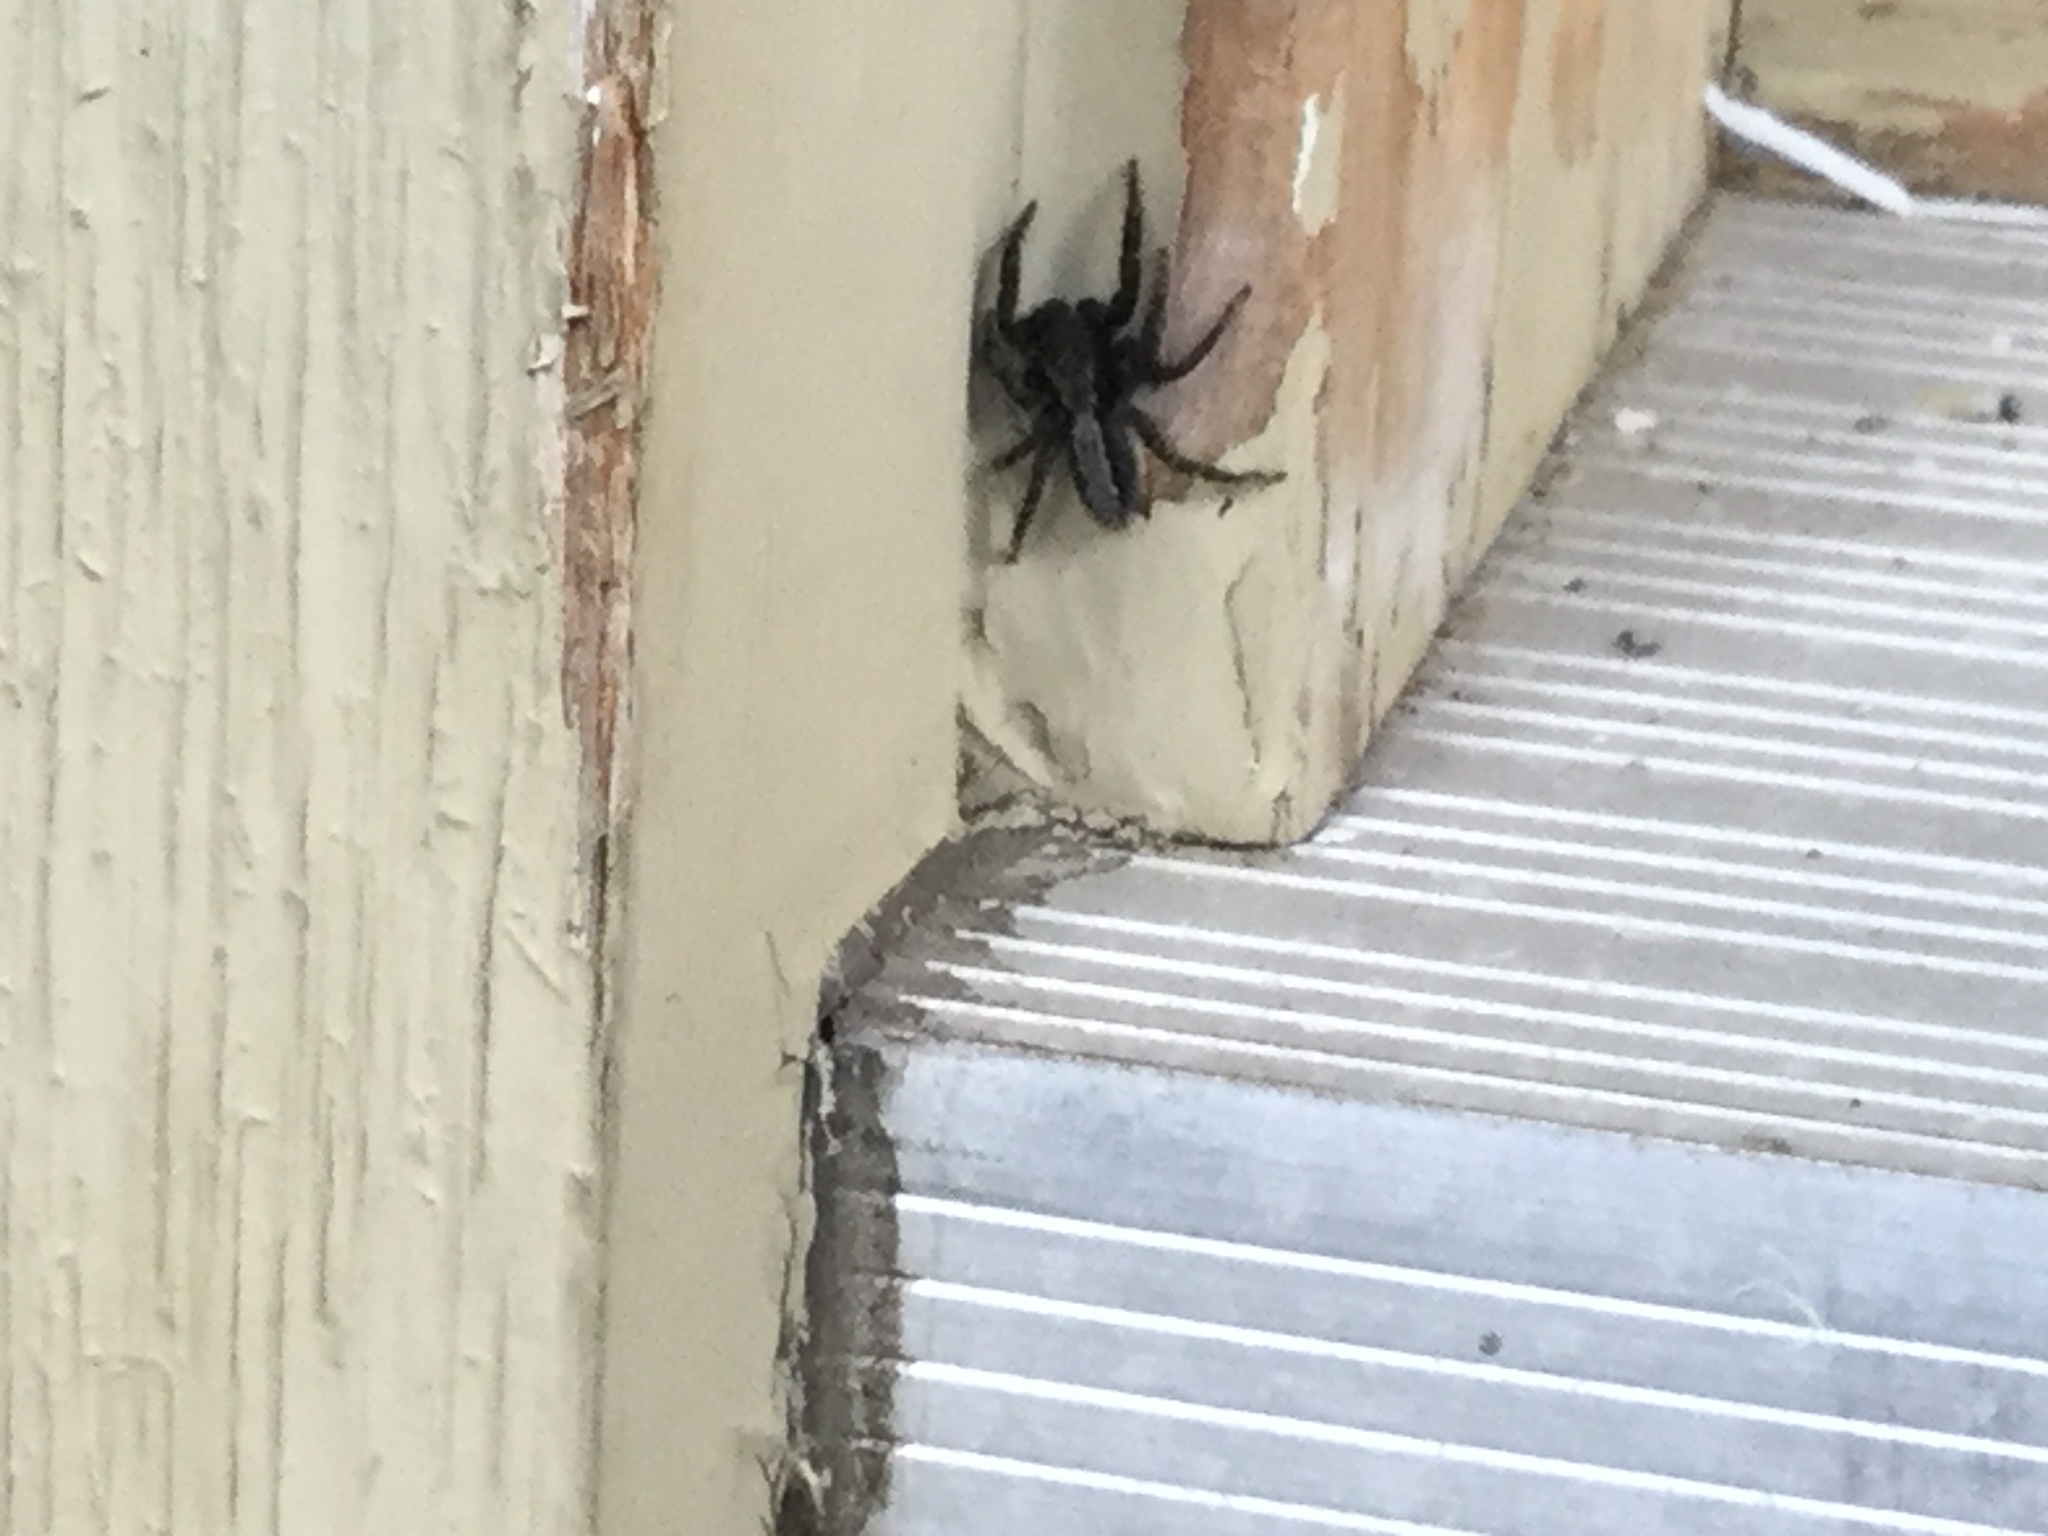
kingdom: Animalia
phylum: Arthropoda
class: Arachnida
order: Araneae
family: Salticidae
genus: Platycryptus
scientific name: Platycryptus californicus
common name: Jumping spiders
